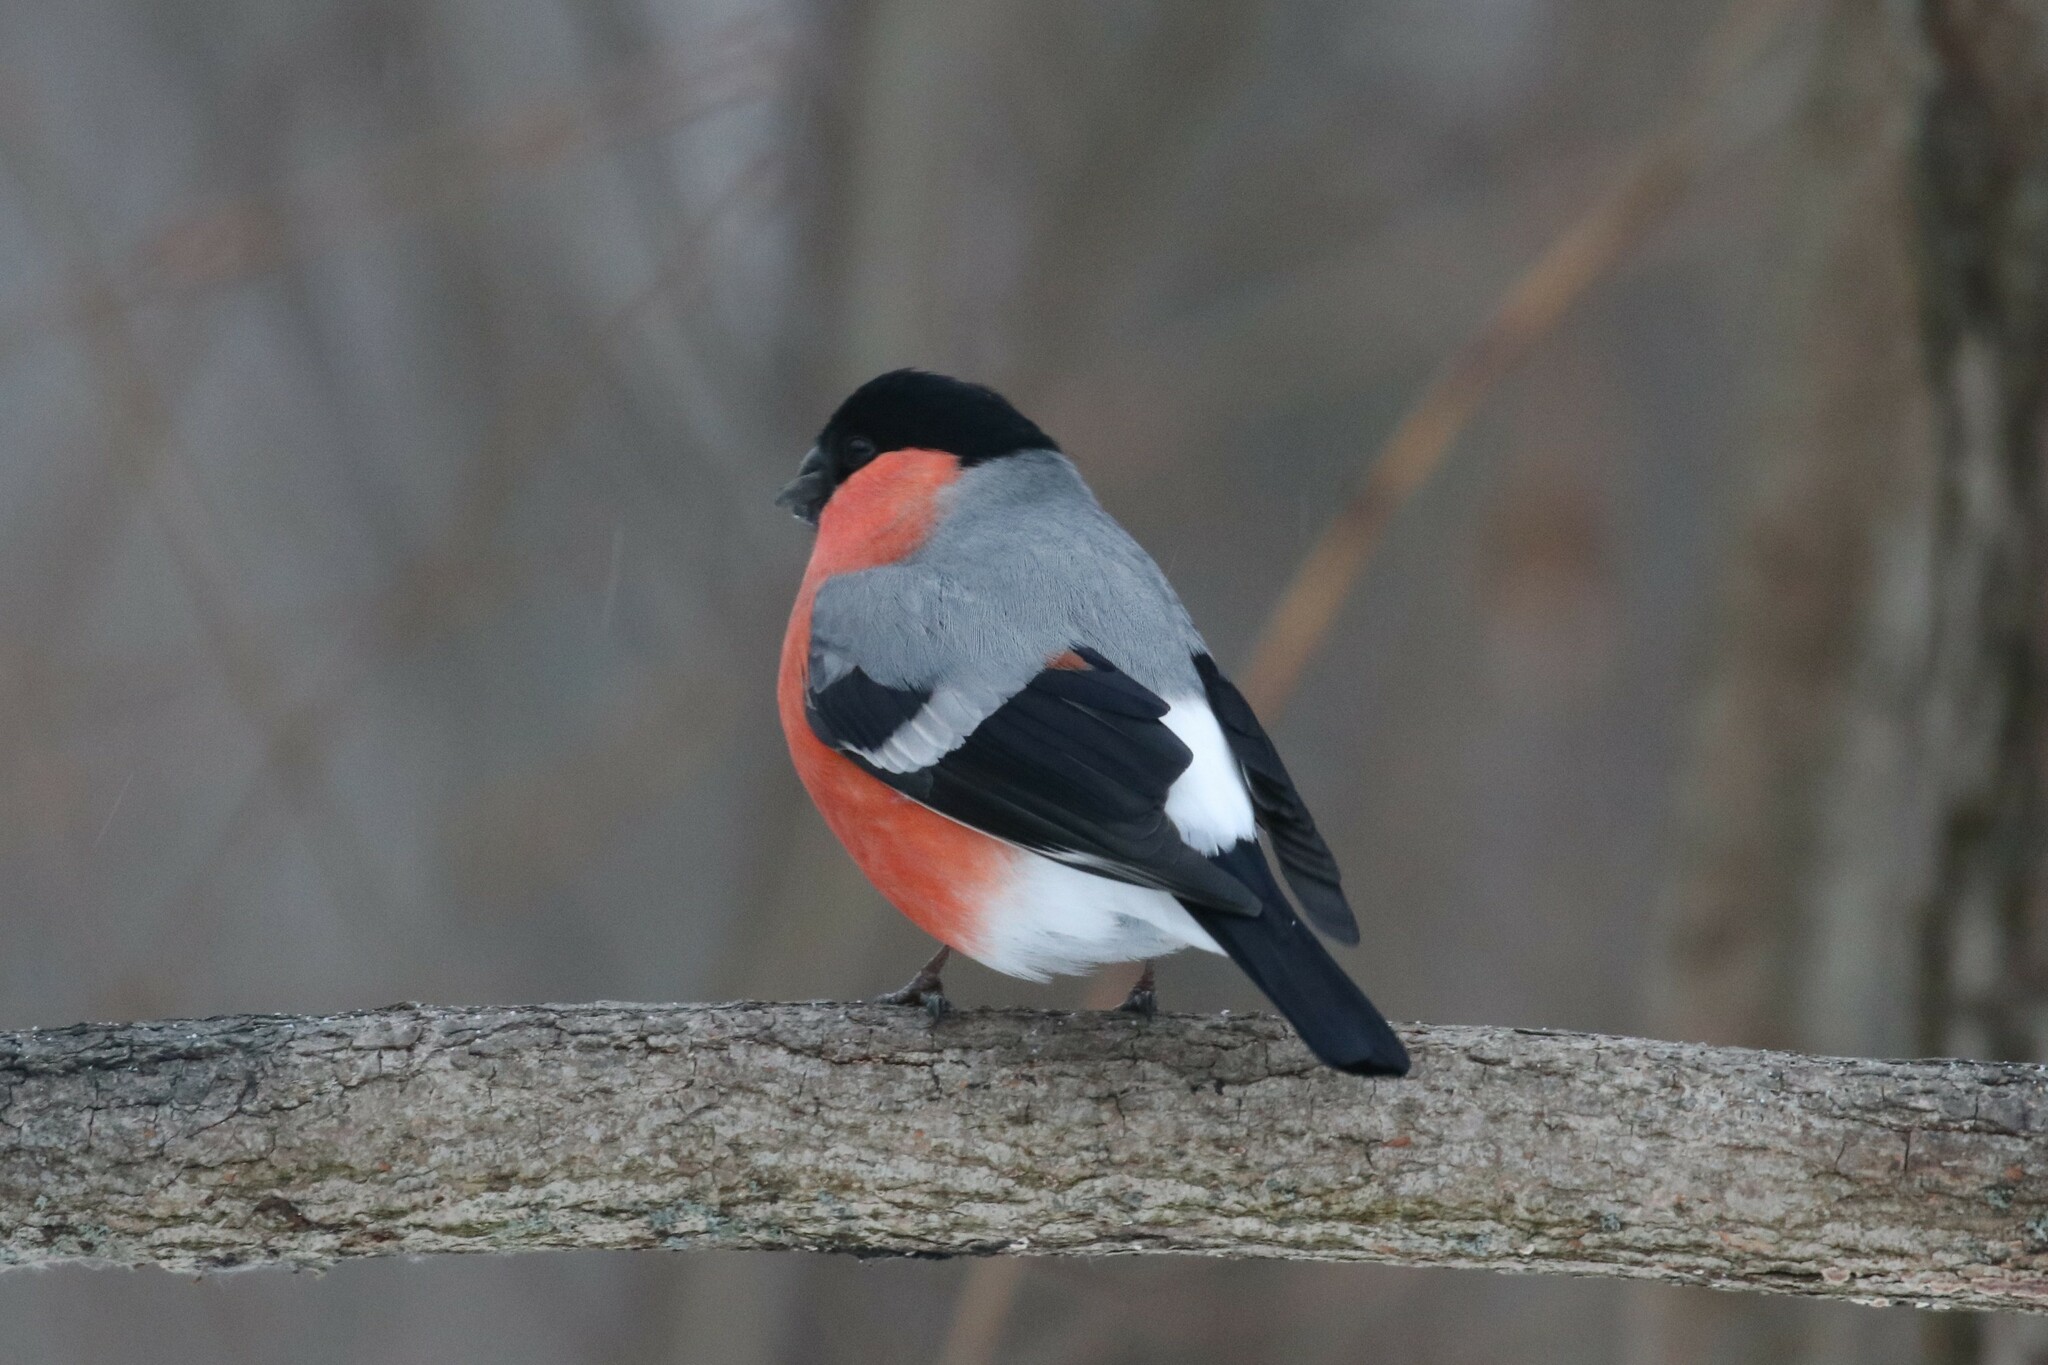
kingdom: Animalia
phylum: Chordata
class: Aves
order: Passeriformes
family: Fringillidae
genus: Pyrrhula
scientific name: Pyrrhula pyrrhula
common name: Eurasian bullfinch
